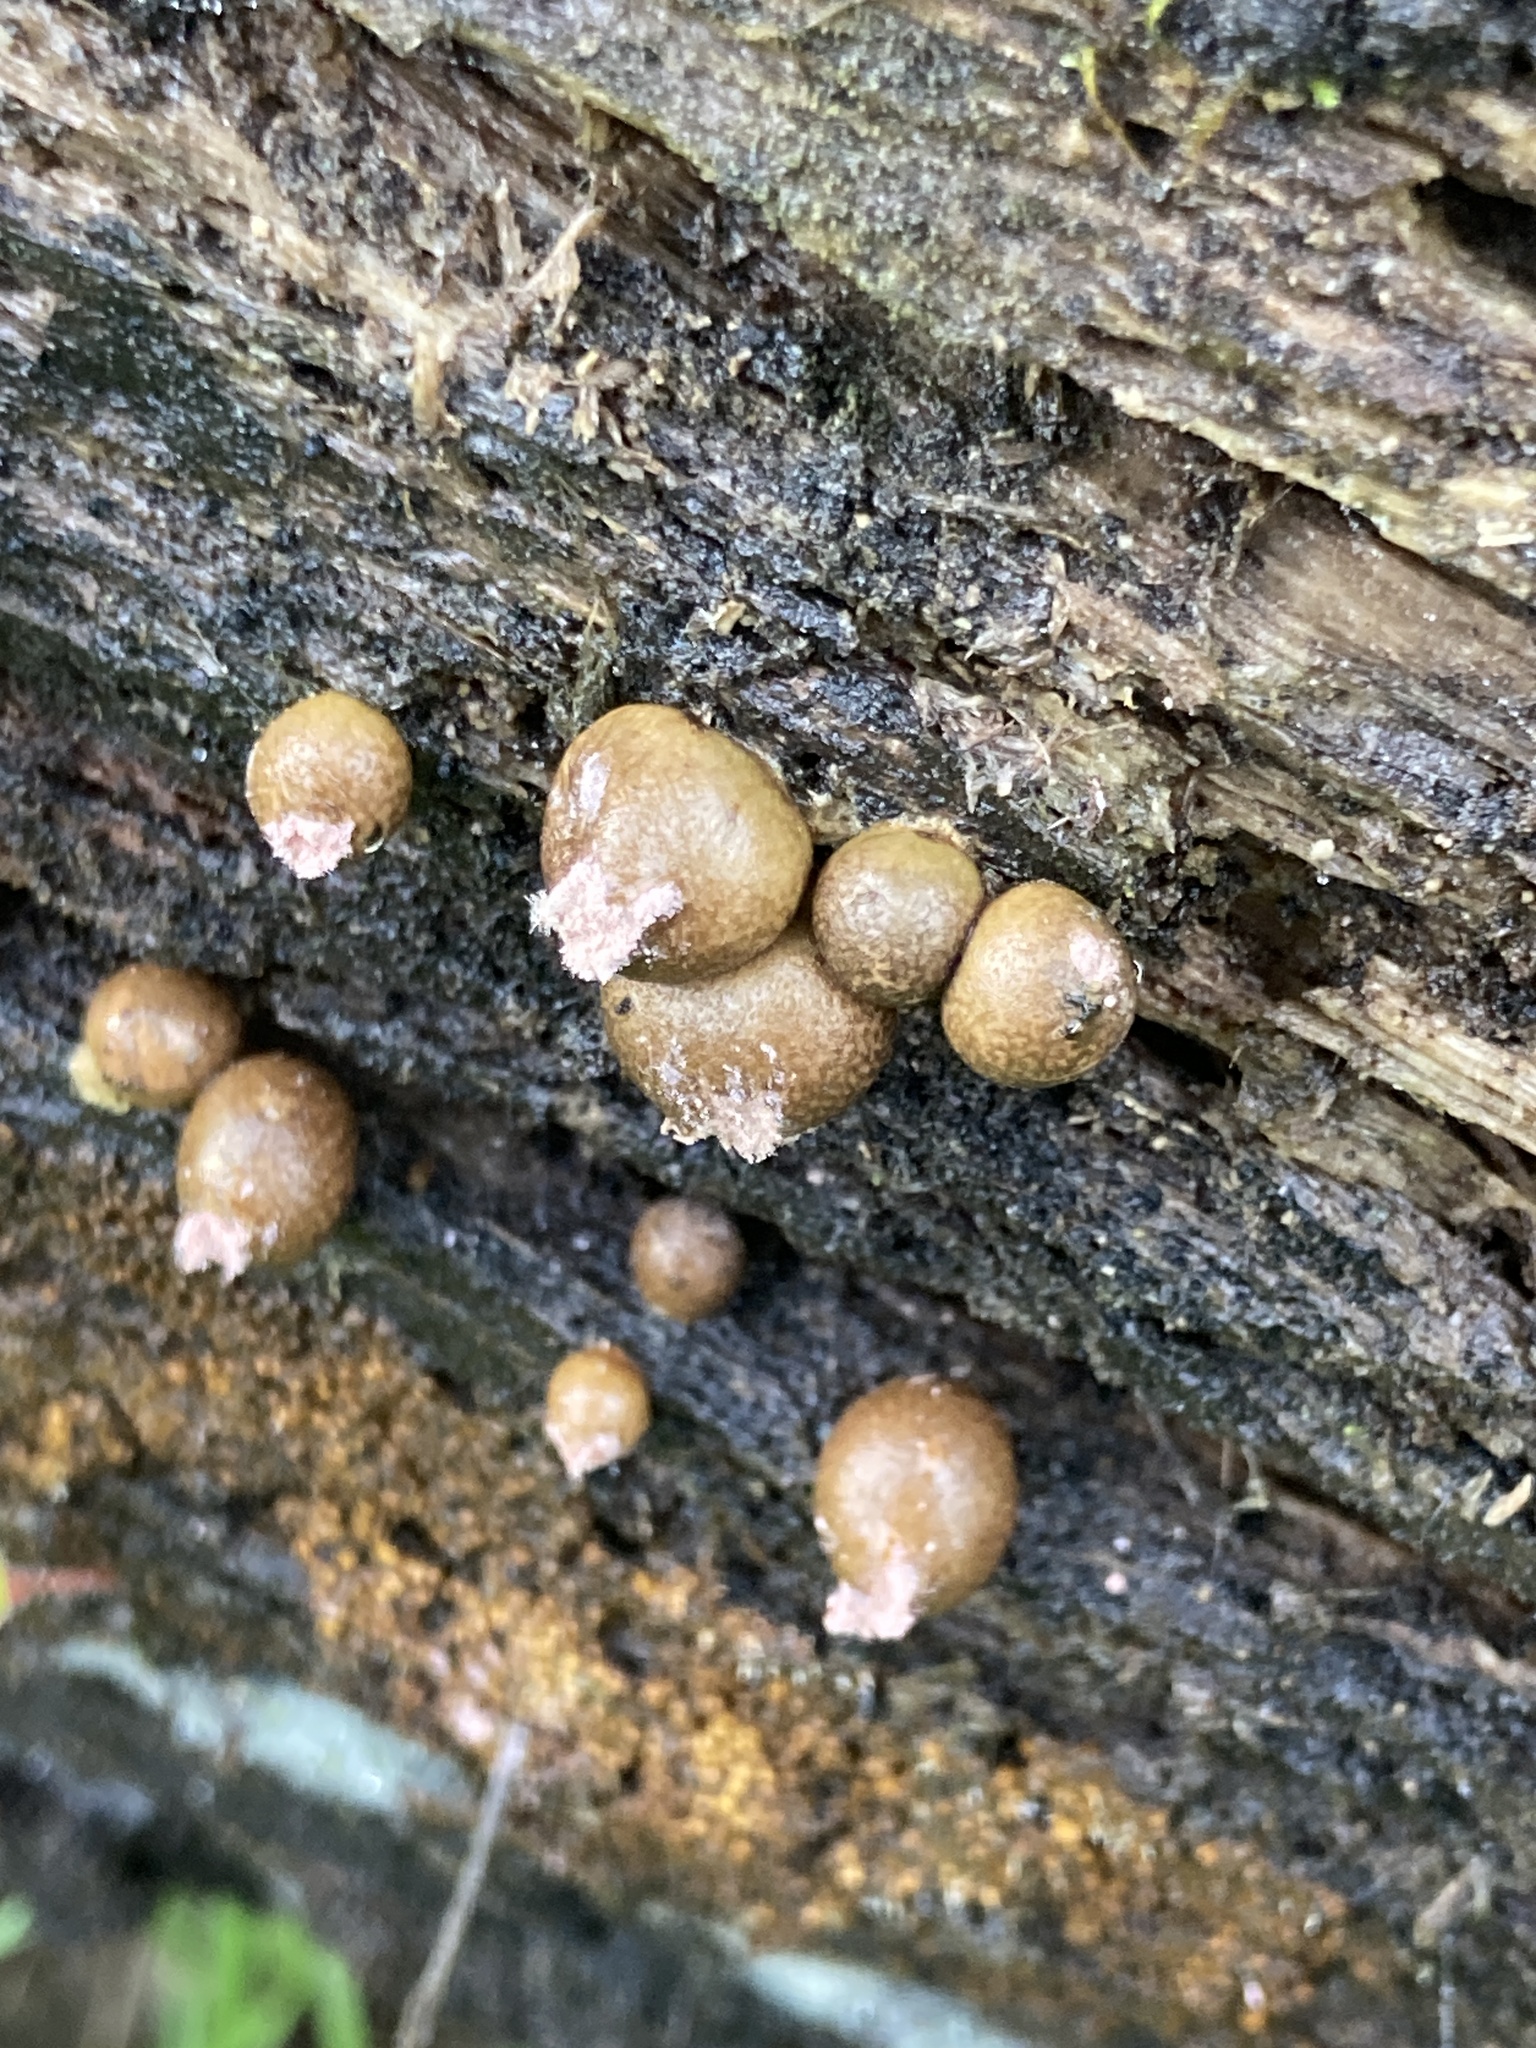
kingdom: Protozoa
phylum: Mycetozoa
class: Myxomycetes
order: Cribrariales
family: Tubiferaceae
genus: Lycogala
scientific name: Lycogala epidendrum
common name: Wolf's milk
